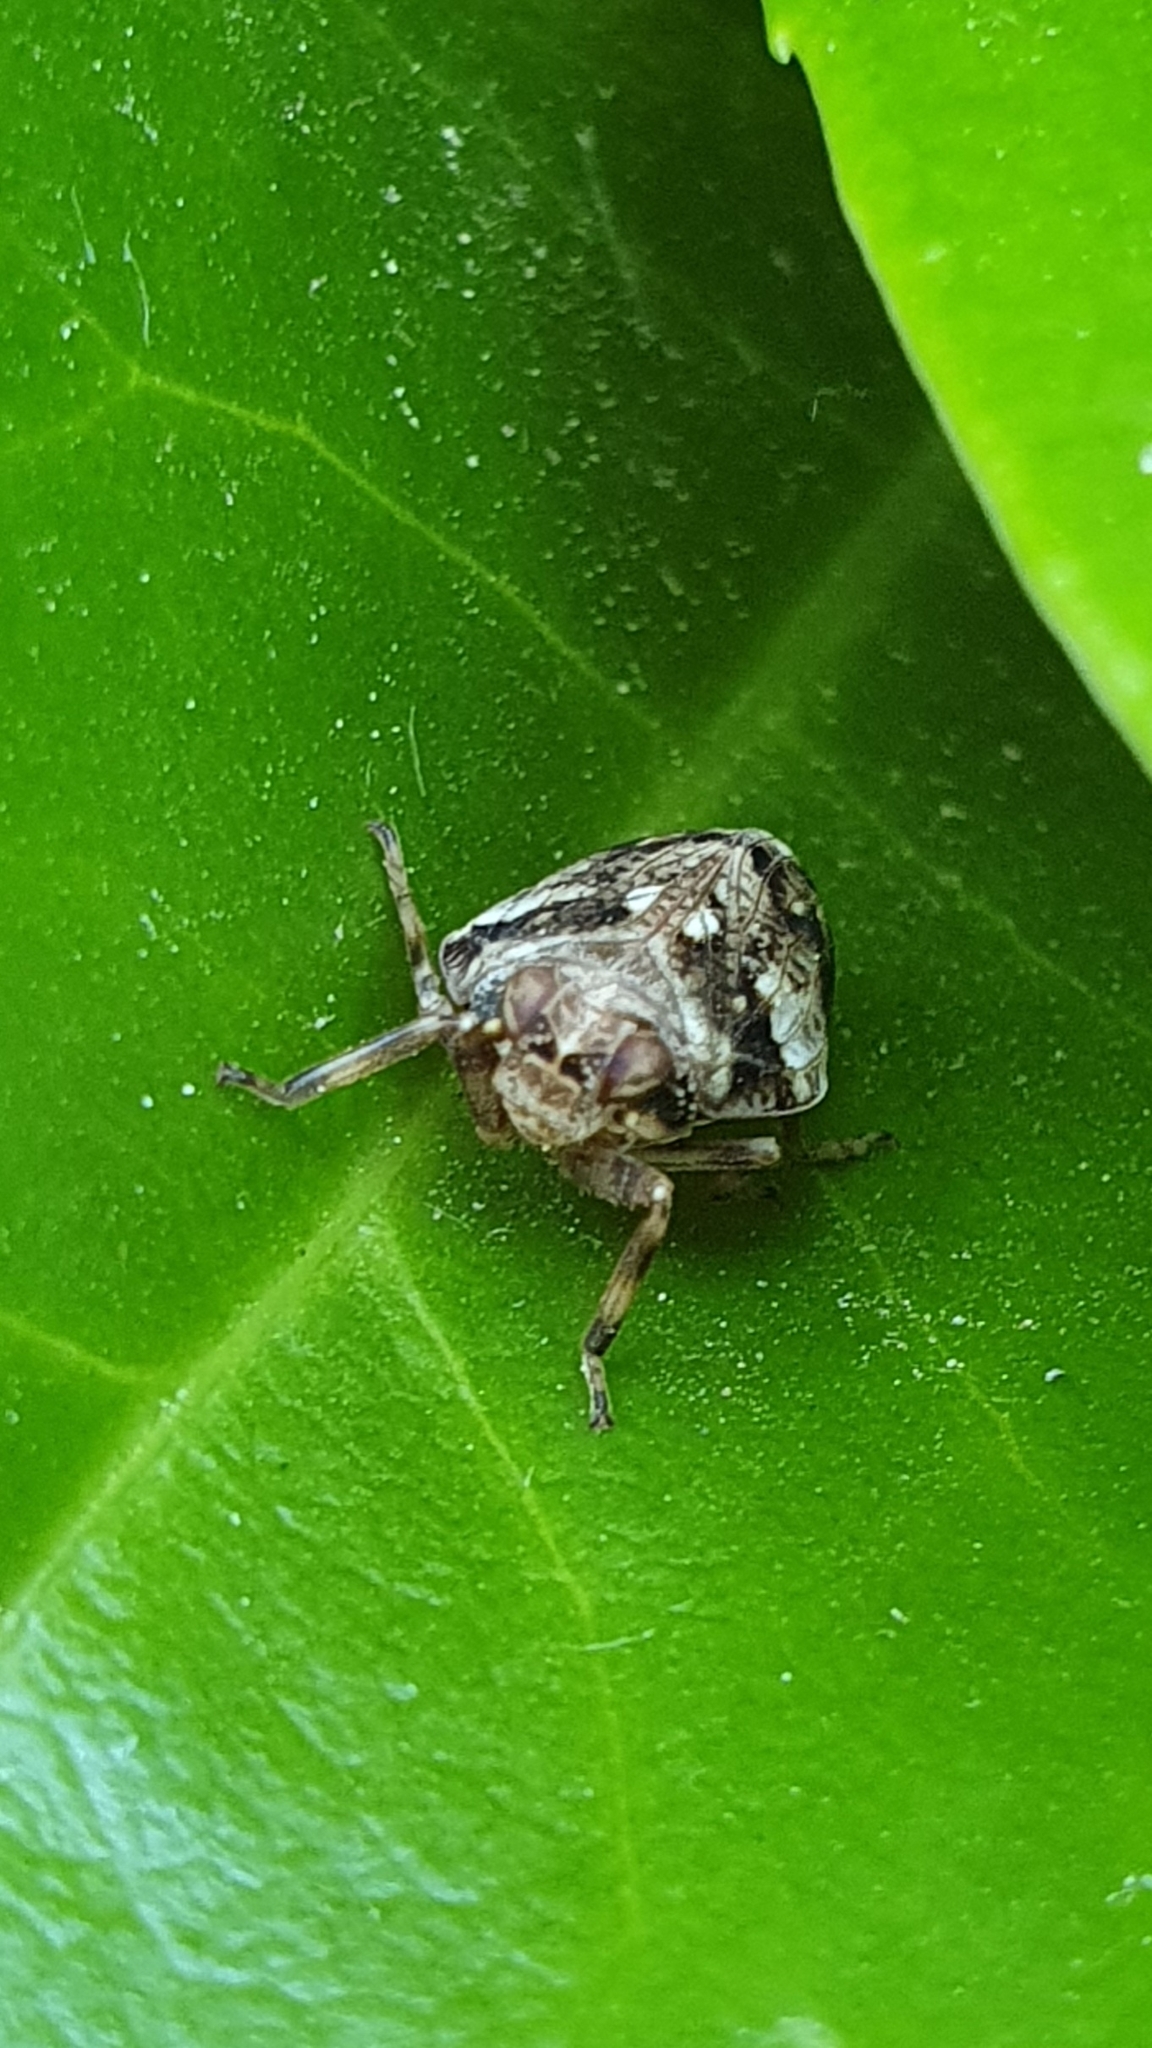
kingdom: Animalia
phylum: Arthropoda
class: Insecta
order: Hemiptera
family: Issidae
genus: Issus
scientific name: Issus coleoptratus
